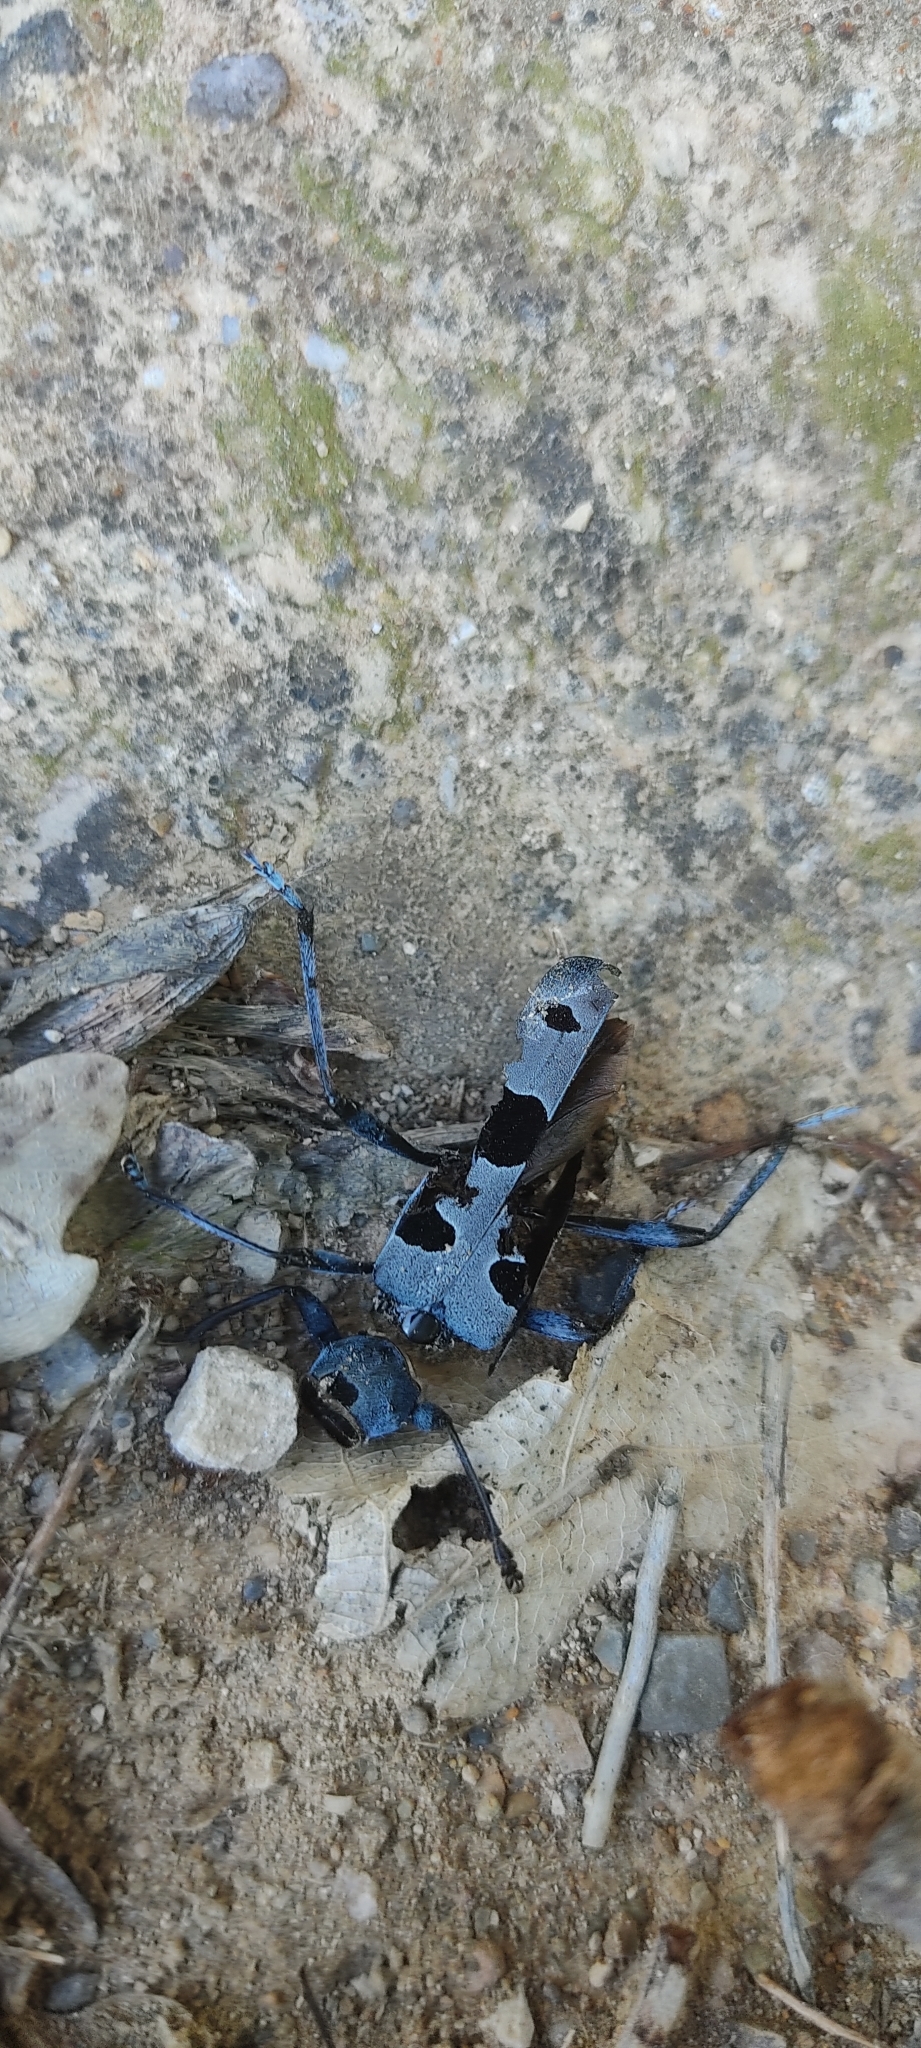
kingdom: Animalia
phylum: Arthropoda
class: Insecta
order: Coleoptera
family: Cerambycidae
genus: Rosalia
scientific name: Rosalia alpina
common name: Rosalia longicorn
